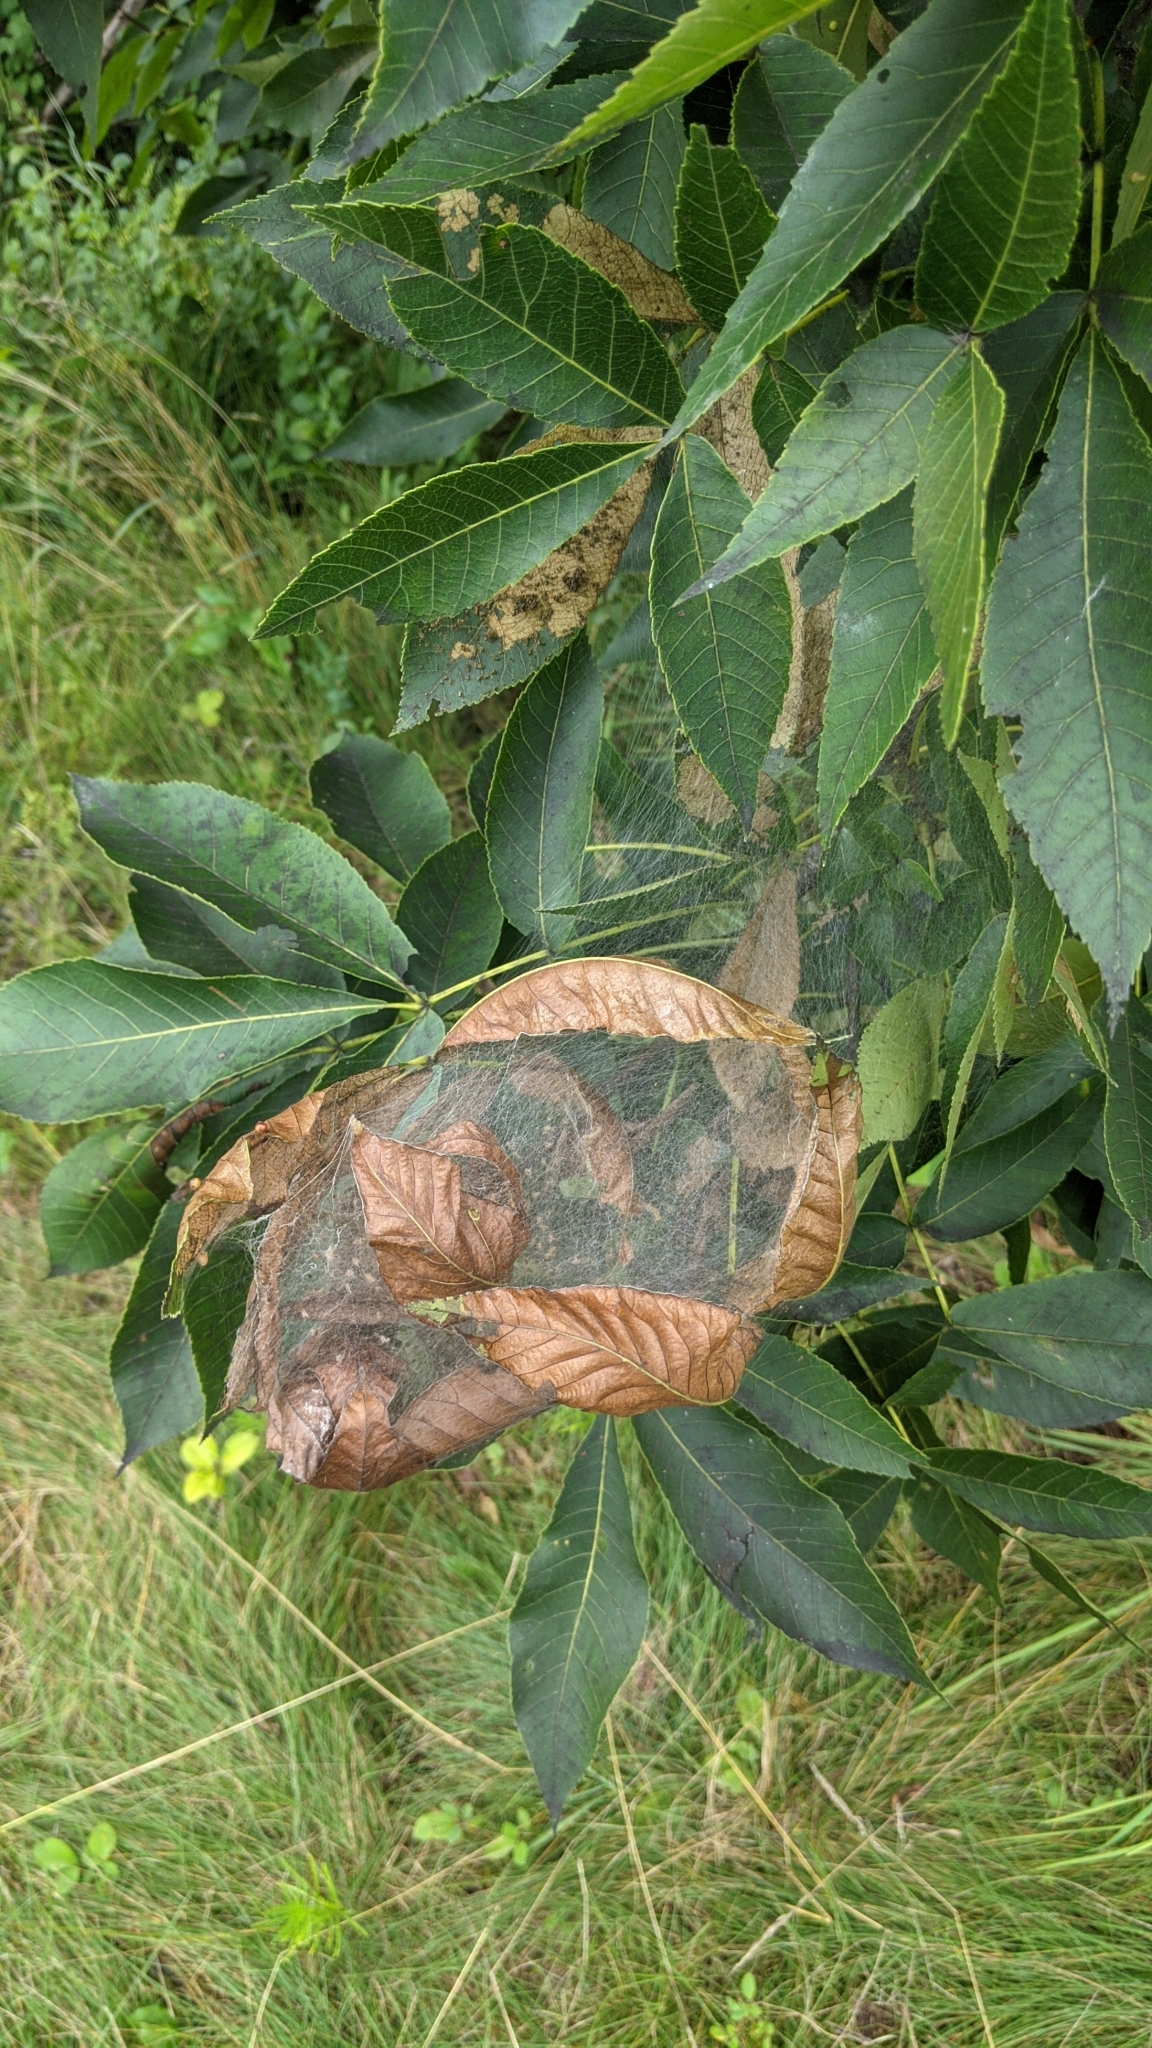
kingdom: Animalia
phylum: Arthropoda
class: Insecta
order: Lepidoptera
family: Erebidae
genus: Hyphantria
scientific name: Hyphantria cunea
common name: American white moth
